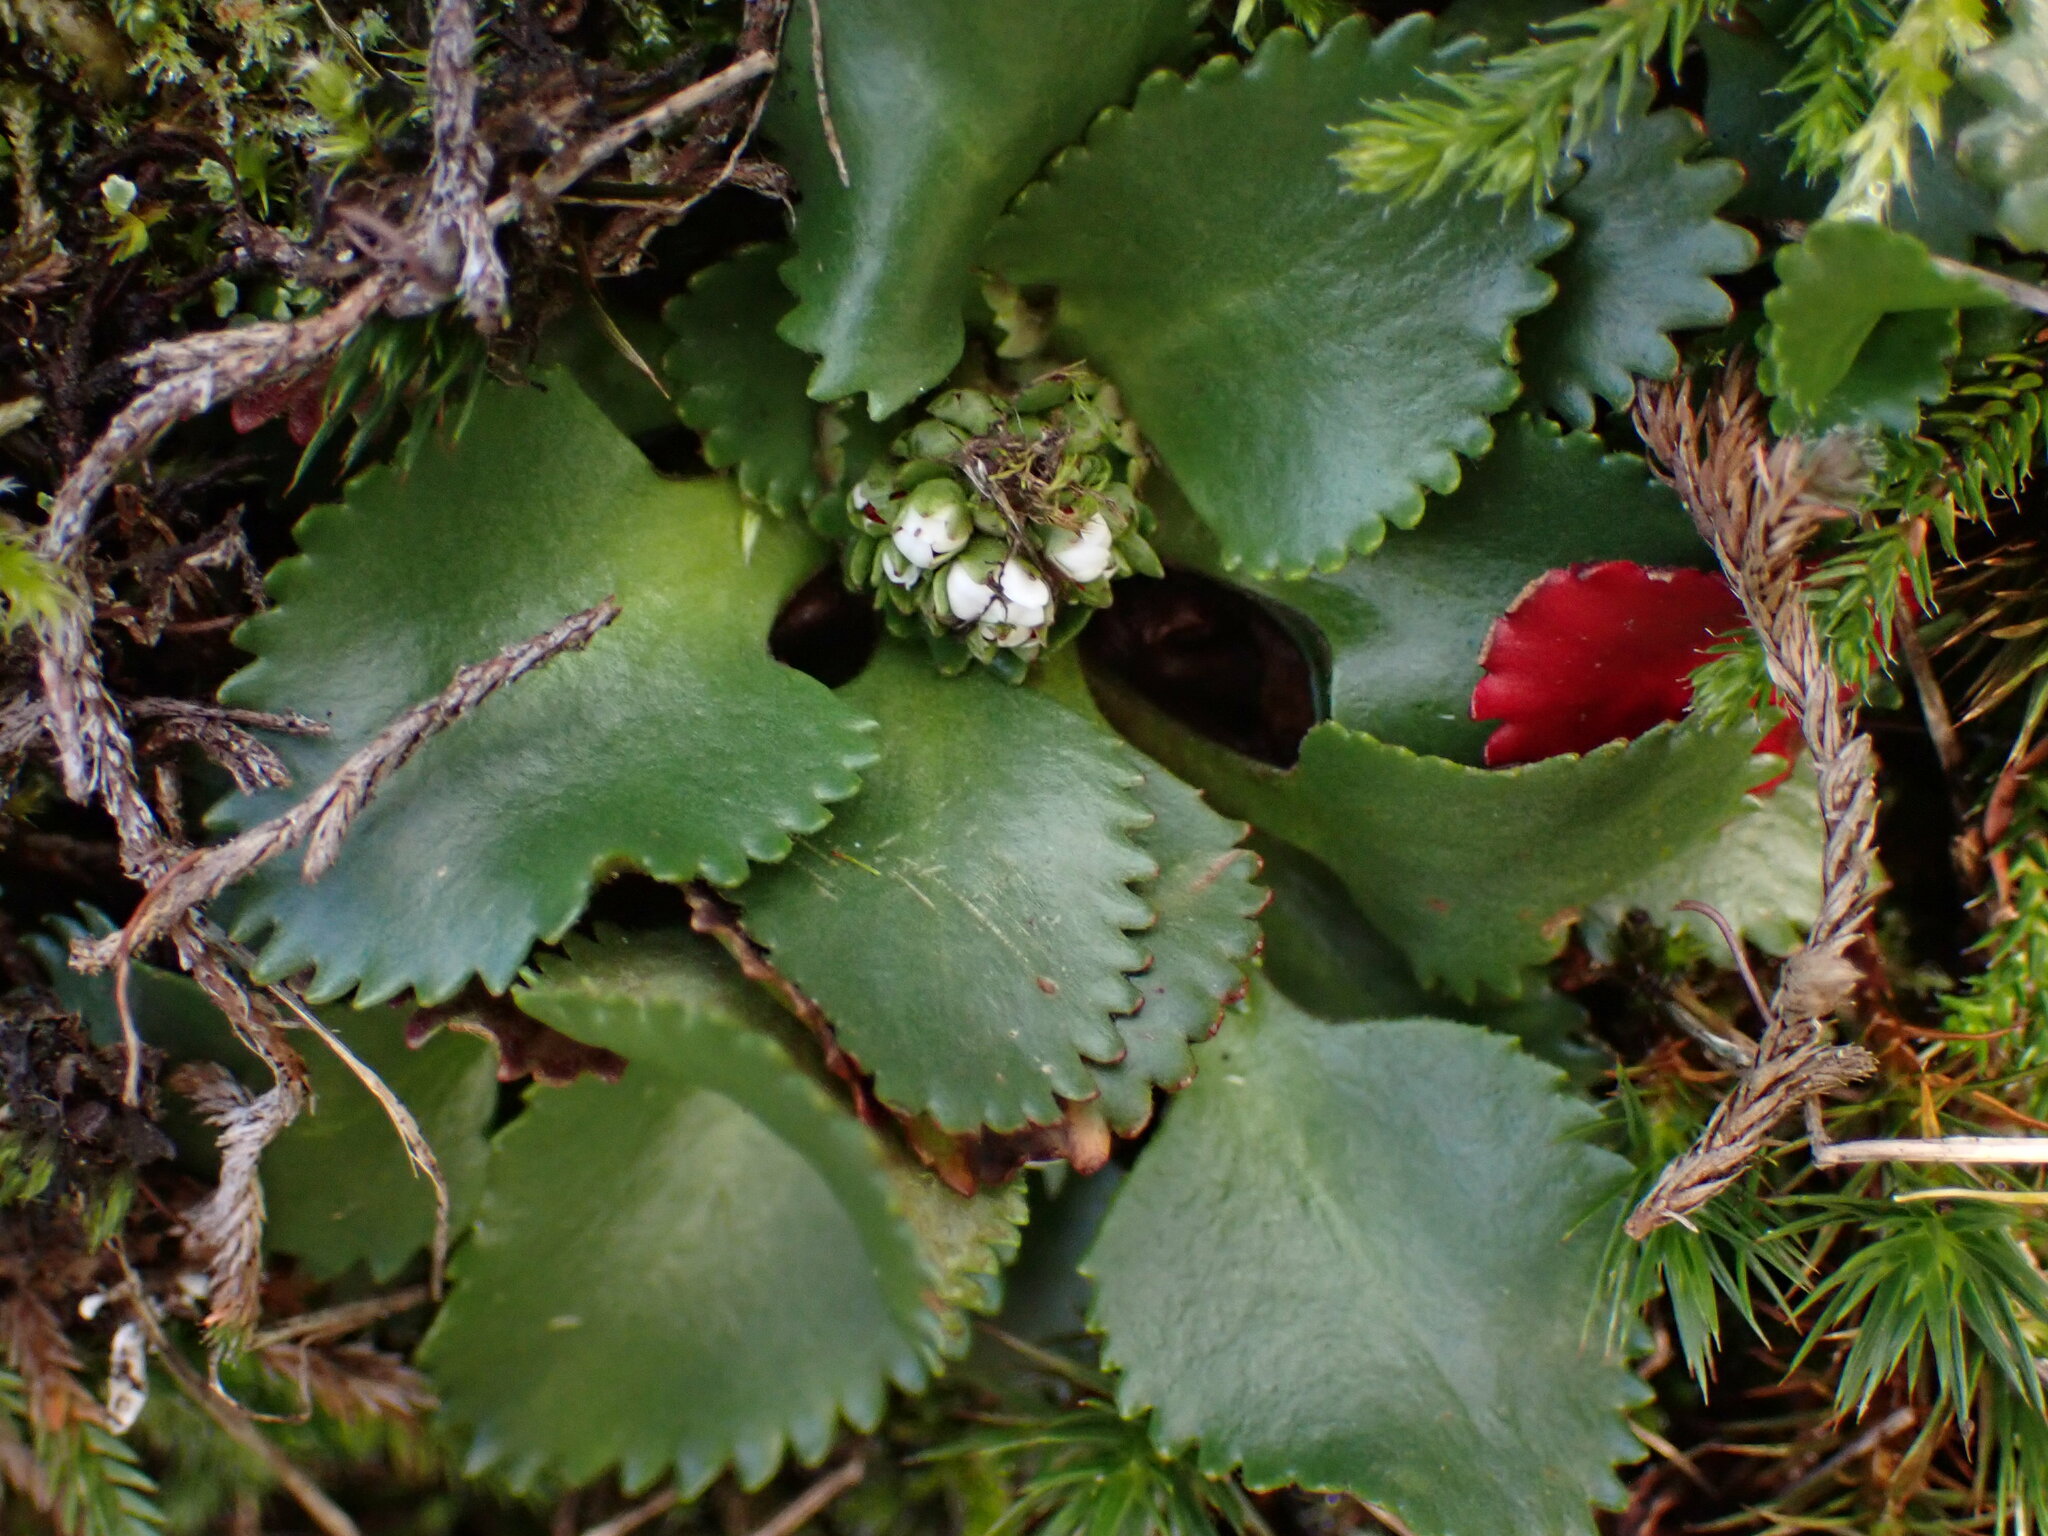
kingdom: Plantae
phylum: Tracheophyta
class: Magnoliopsida
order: Saxifragales
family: Saxifragaceae
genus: Micranthes
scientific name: Micranthes rufidula
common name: Rustyhair saxifrage
